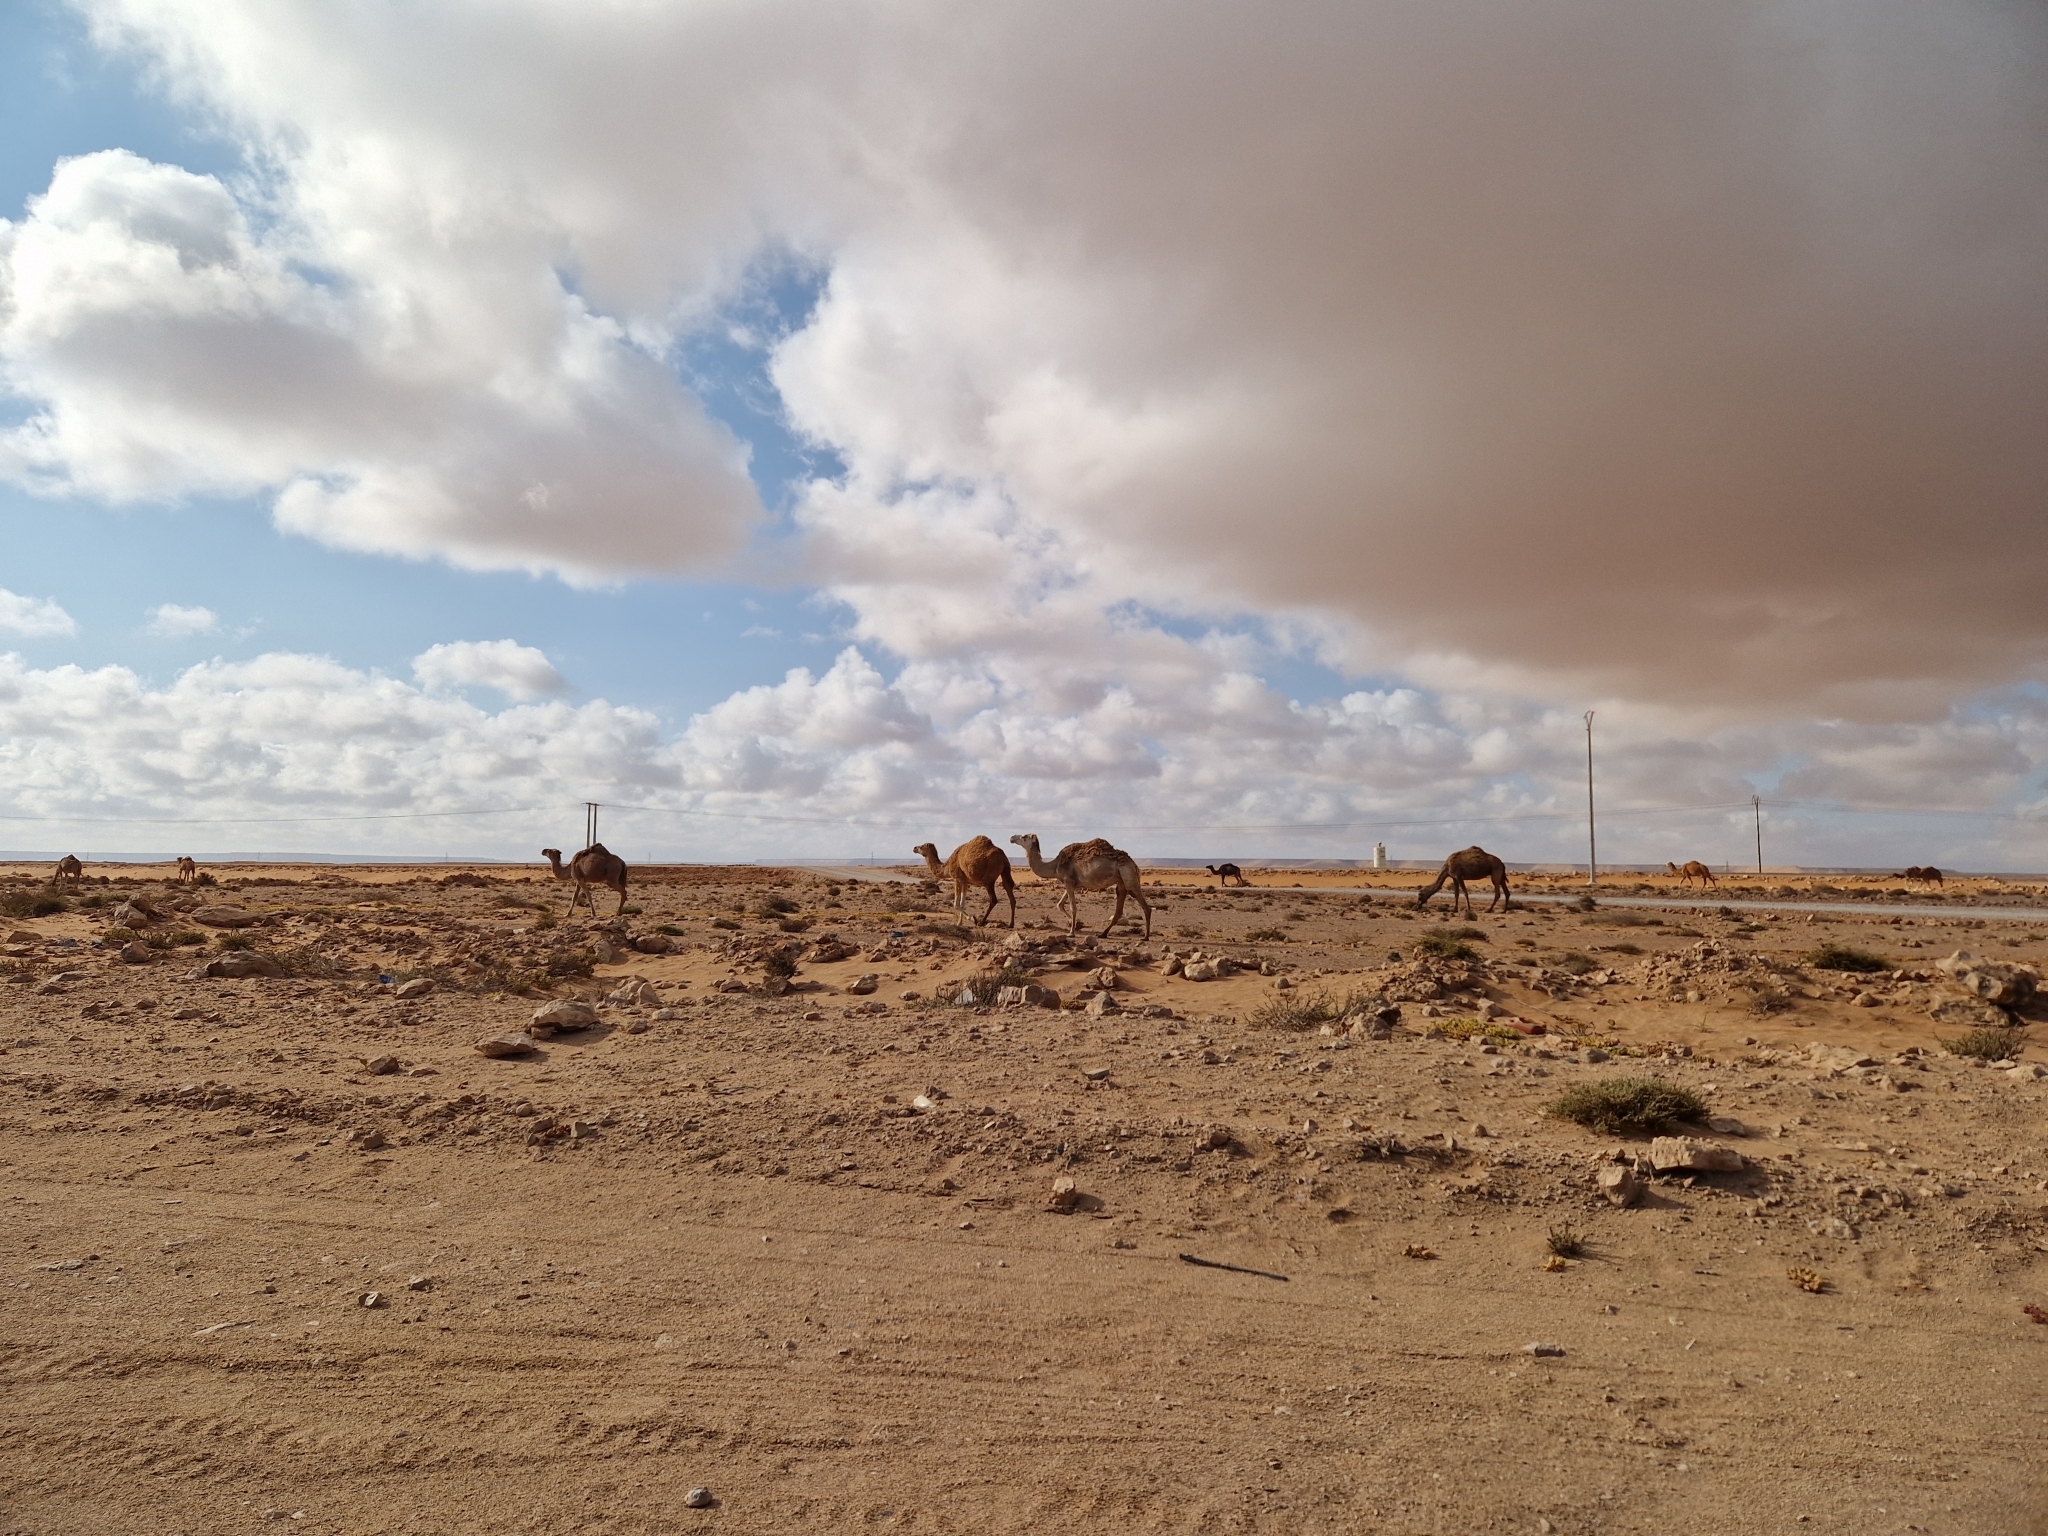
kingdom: Animalia
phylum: Chordata
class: Mammalia
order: Artiodactyla
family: Camelidae
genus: Camelus
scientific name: Camelus dromedarius
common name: One-humped camel
